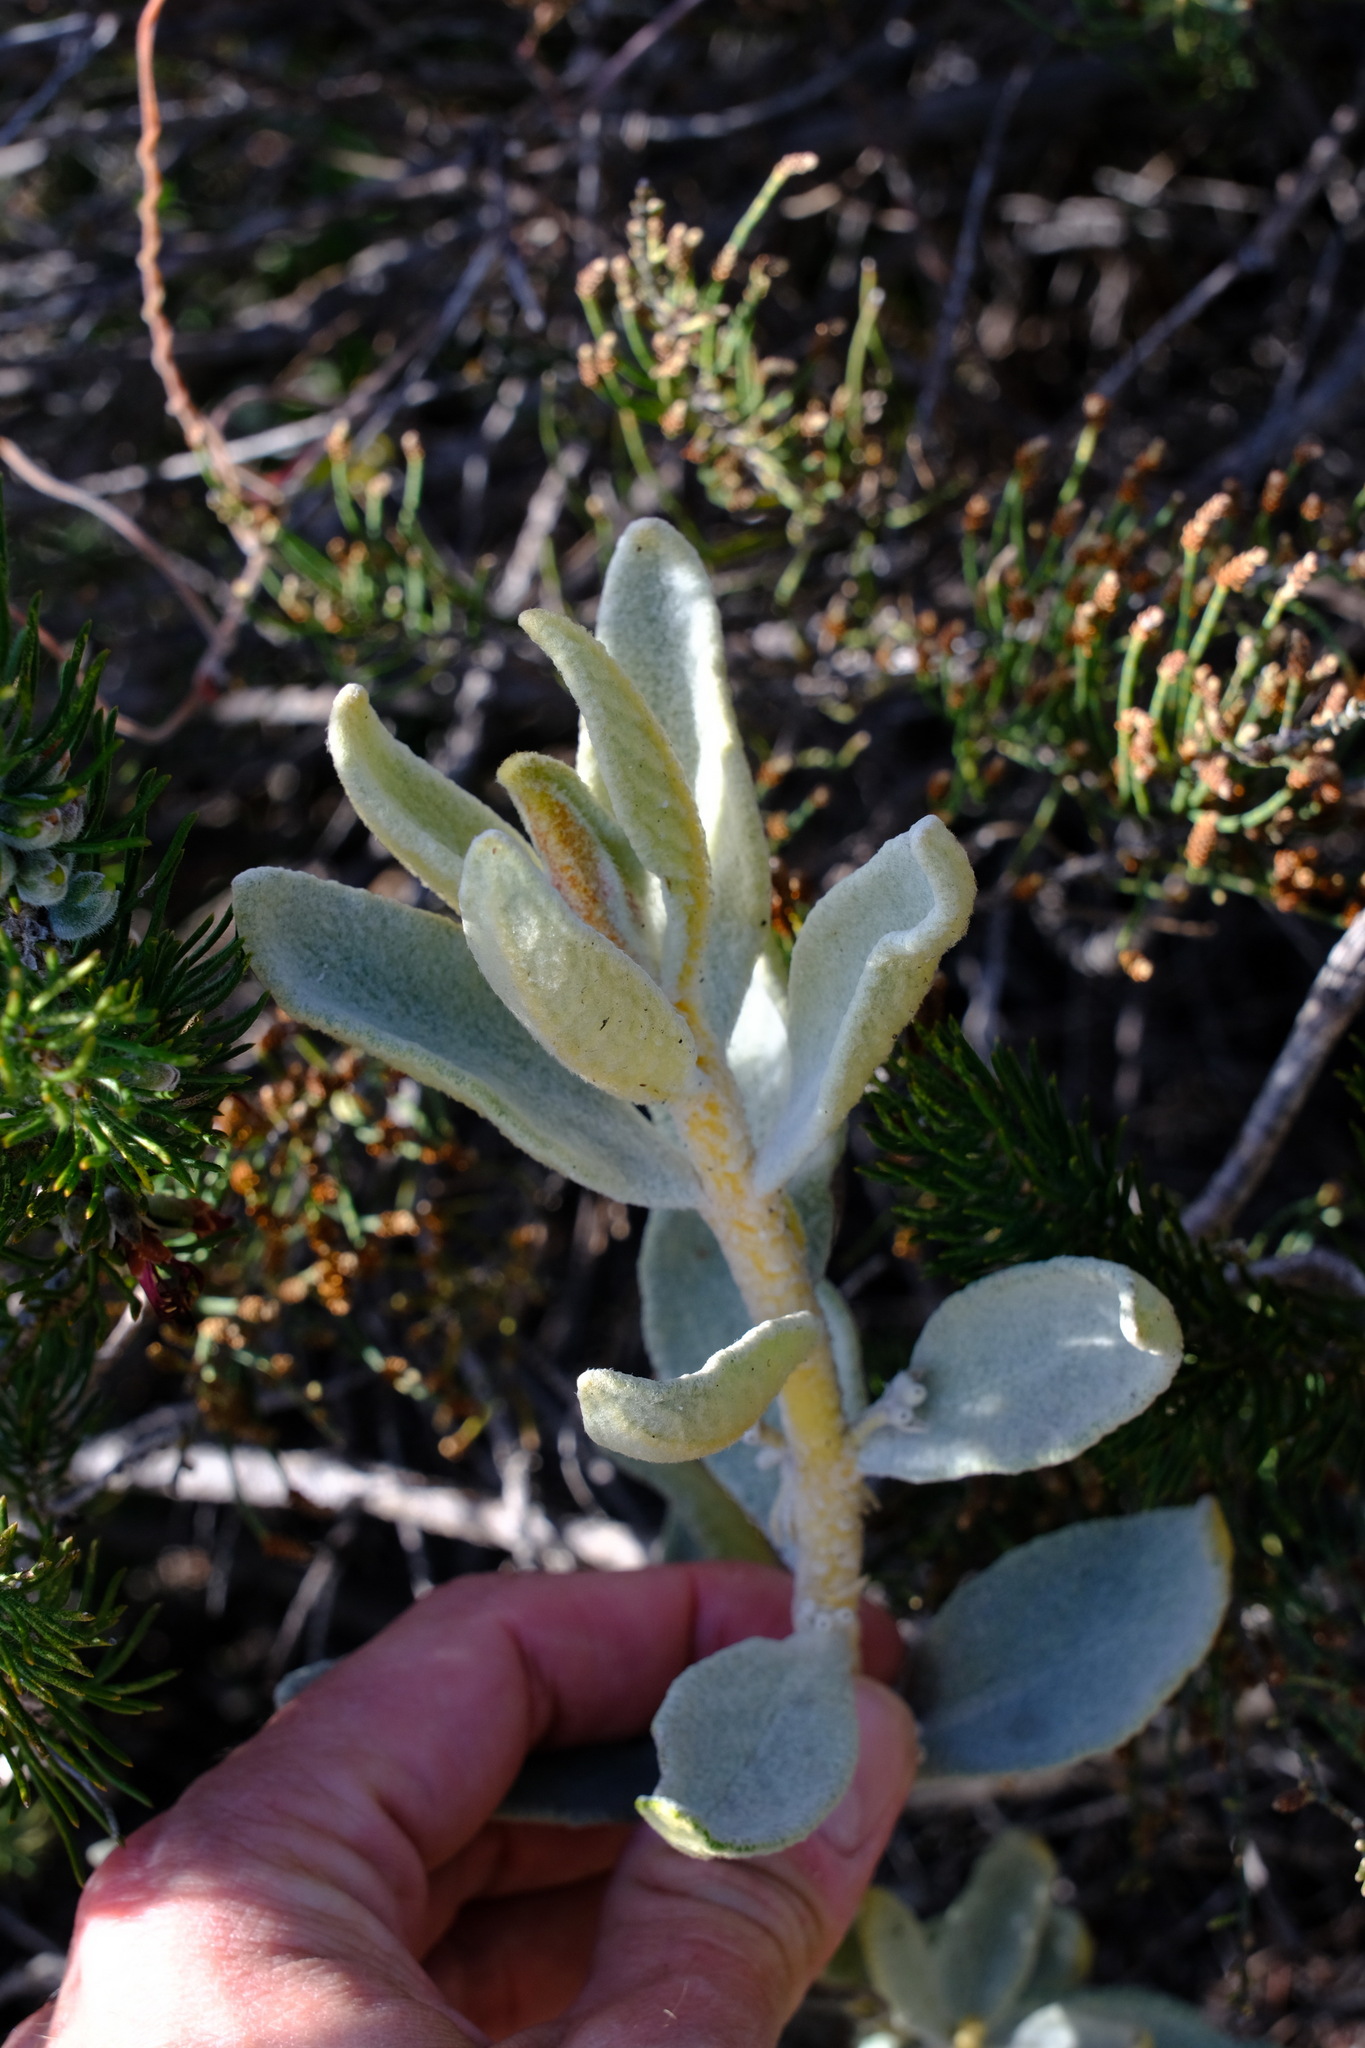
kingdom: Plantae
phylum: Tracheophyta
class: Magnoliopsida
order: Lamiales
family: Lamiaceae
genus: Quoya
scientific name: Quoya verbascina
